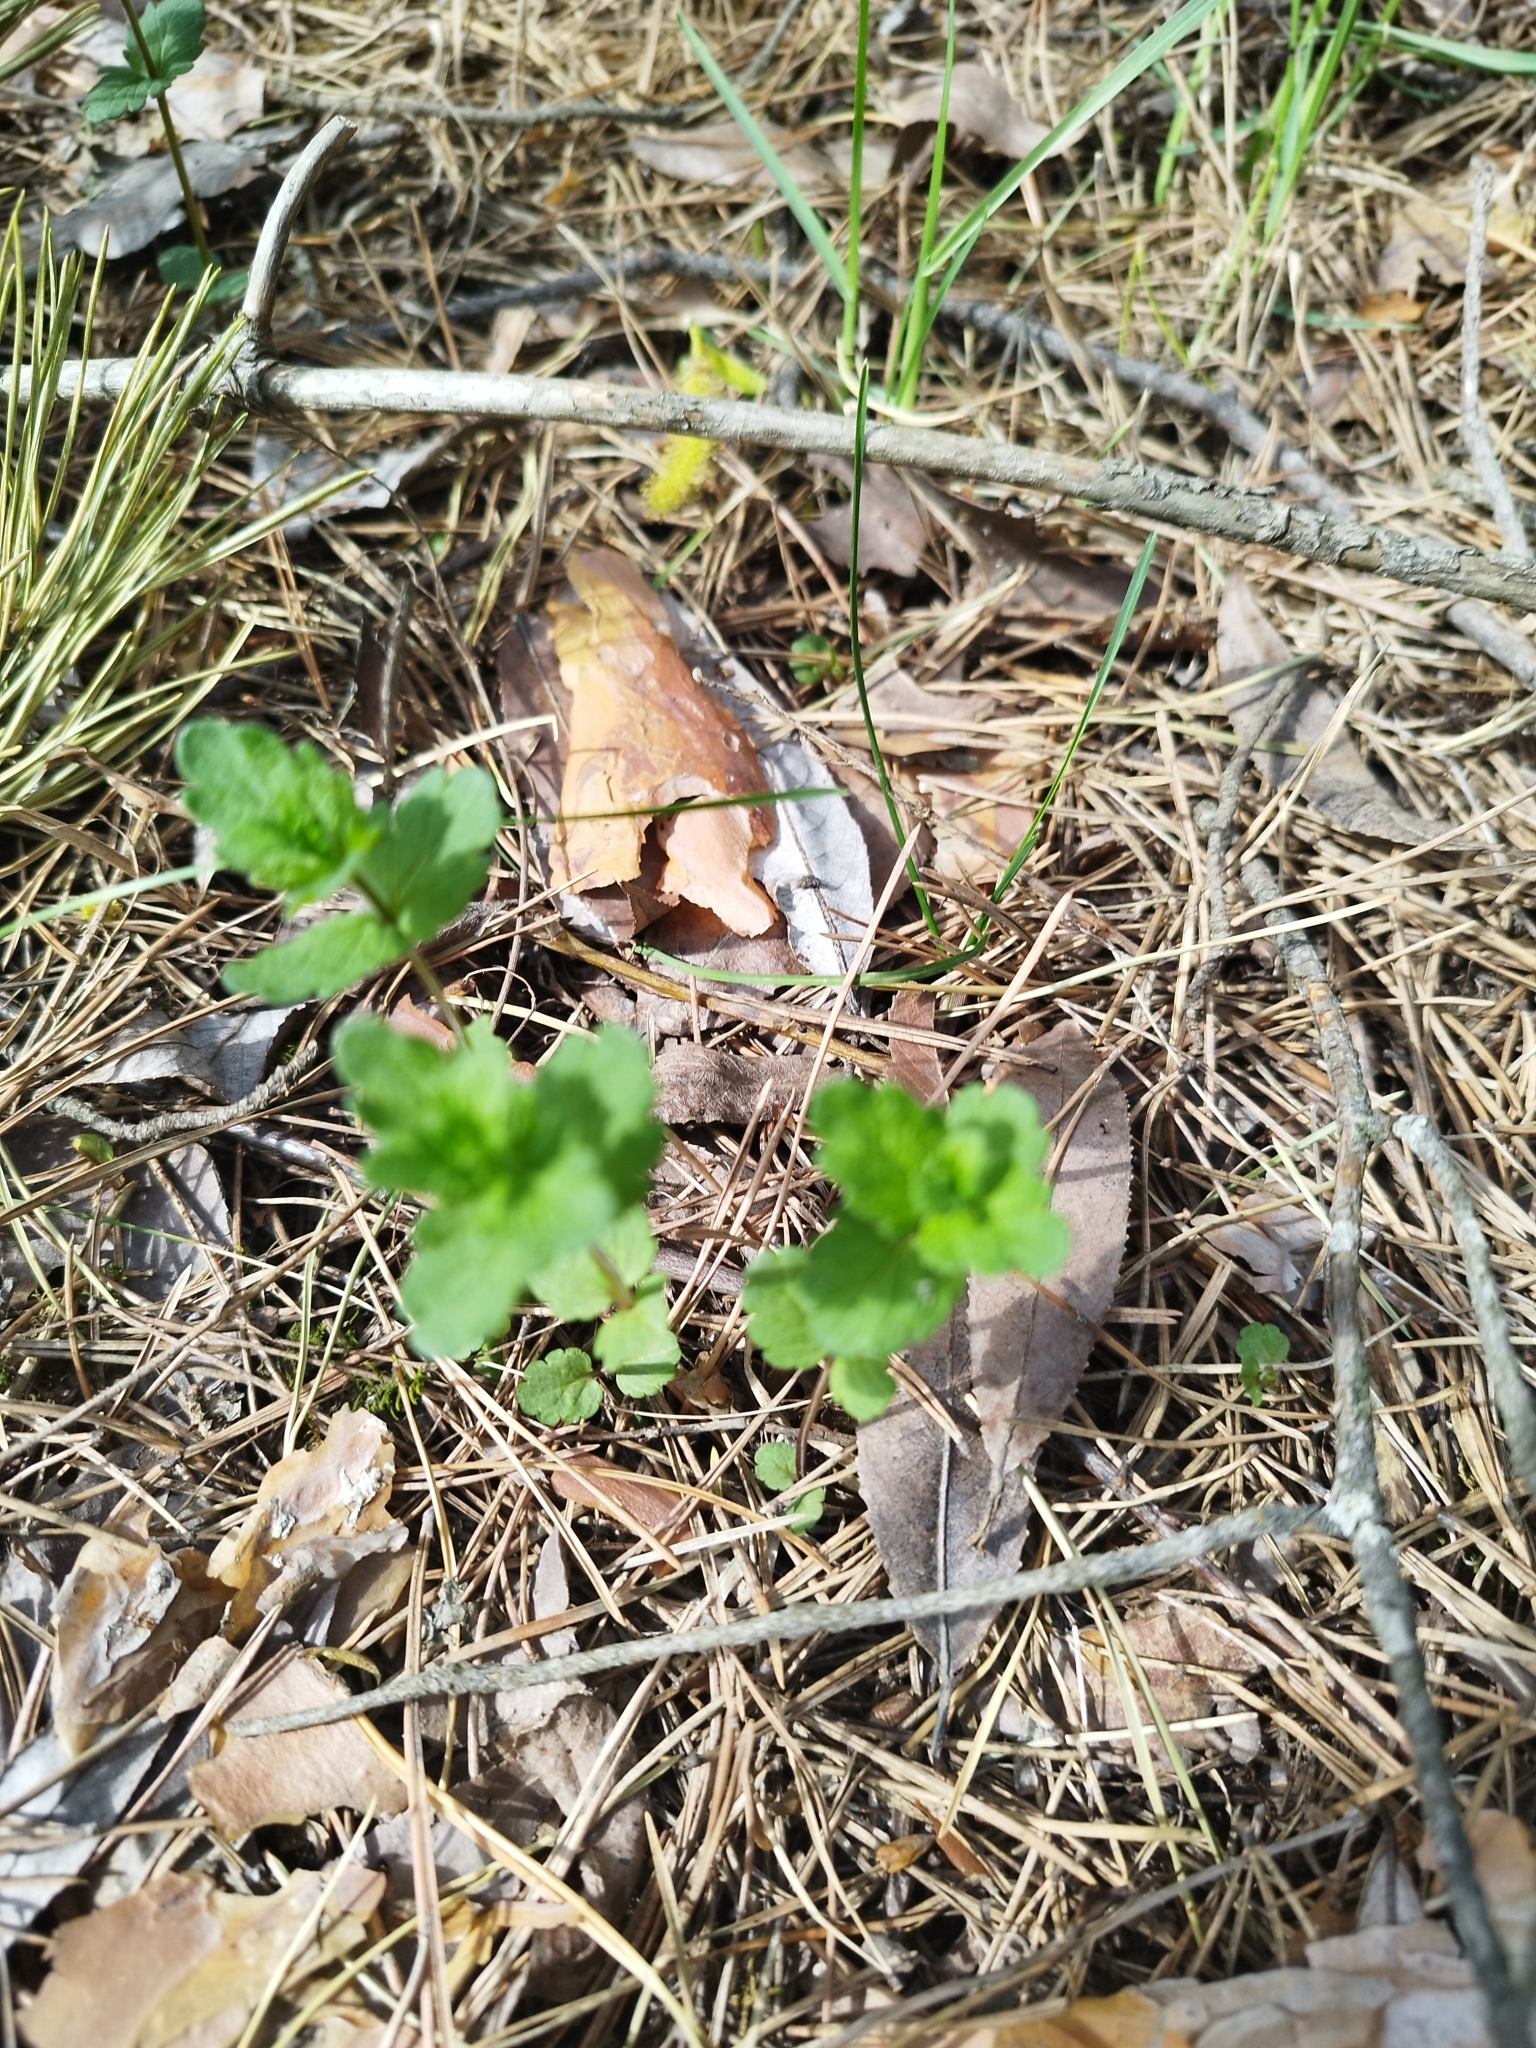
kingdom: Plantae
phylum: Tracheophyta
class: Magnoliopsida
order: Lamiales
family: Plantaginaceae
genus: Veronica
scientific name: Veronica chamaedrys
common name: Germander speedwell
